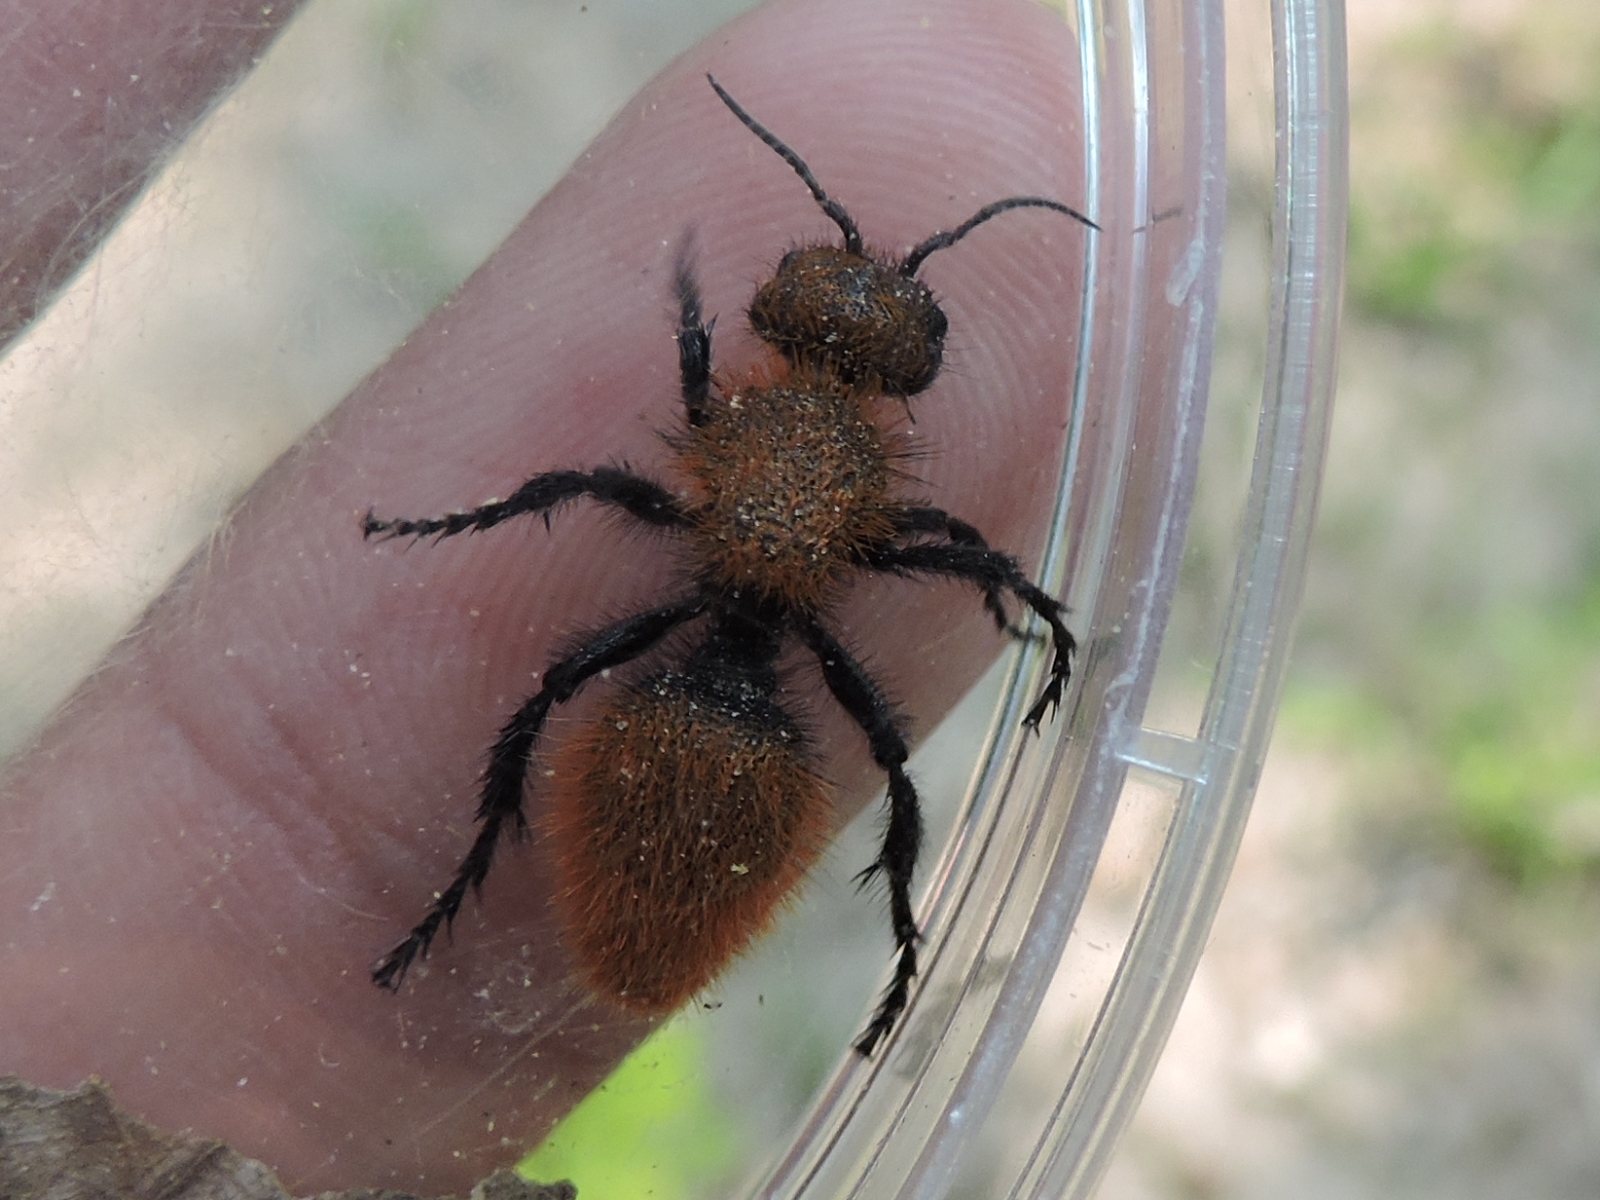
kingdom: Animalia
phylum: Arthropoda
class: Insecta
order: Hymenoptera
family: Mutillidae
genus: Dasymutilla
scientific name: Dasymutilla
